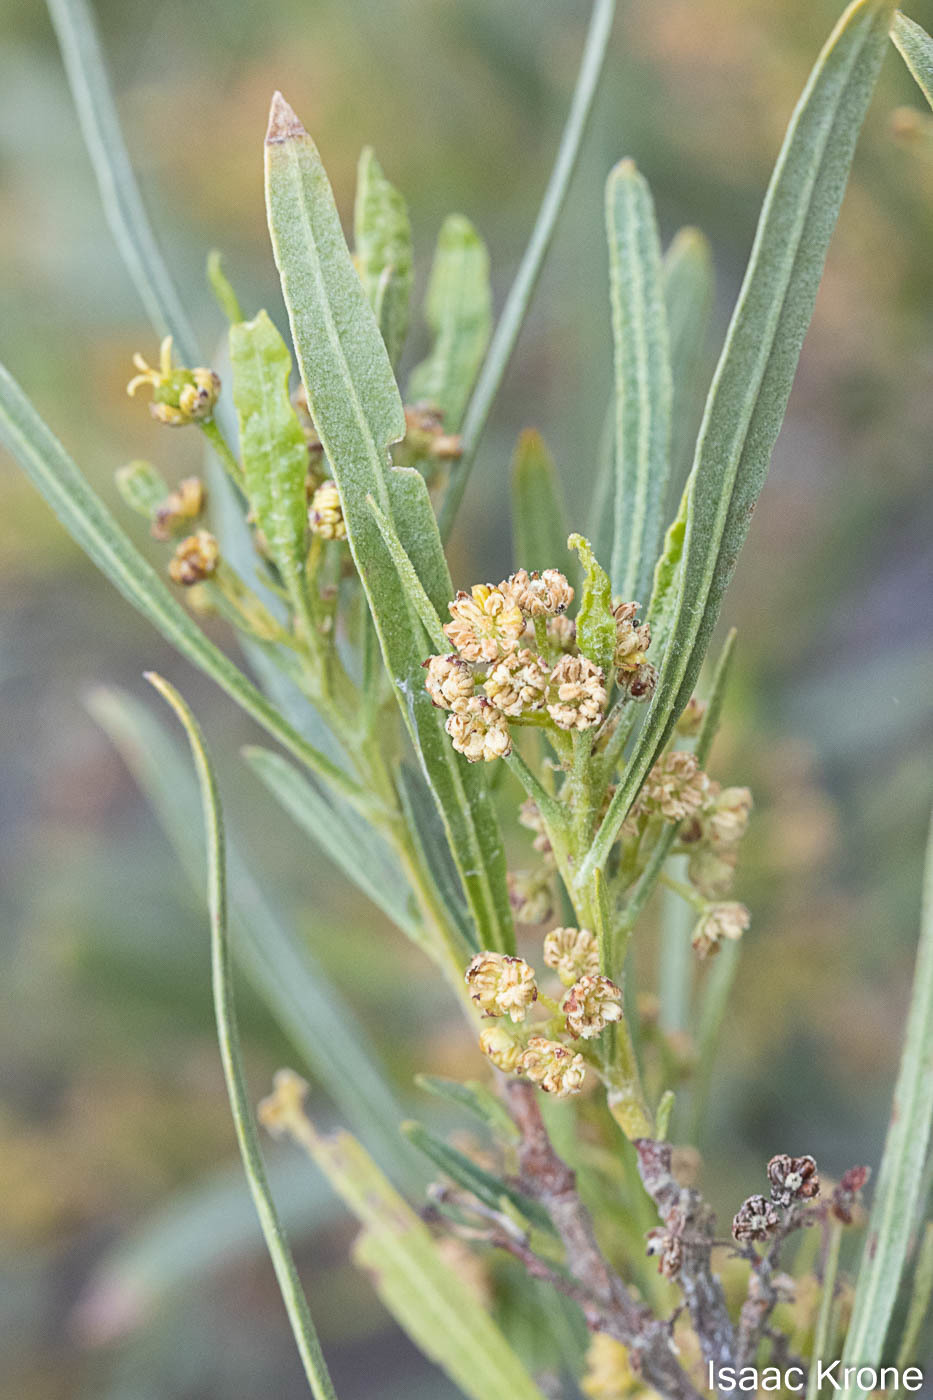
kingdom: Plantae
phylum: Tracheophyta
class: Magnoliopsida
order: Sapindales
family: Sapindaceae
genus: Dodonaea
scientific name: Dodonaea viscosa
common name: Hopbush
